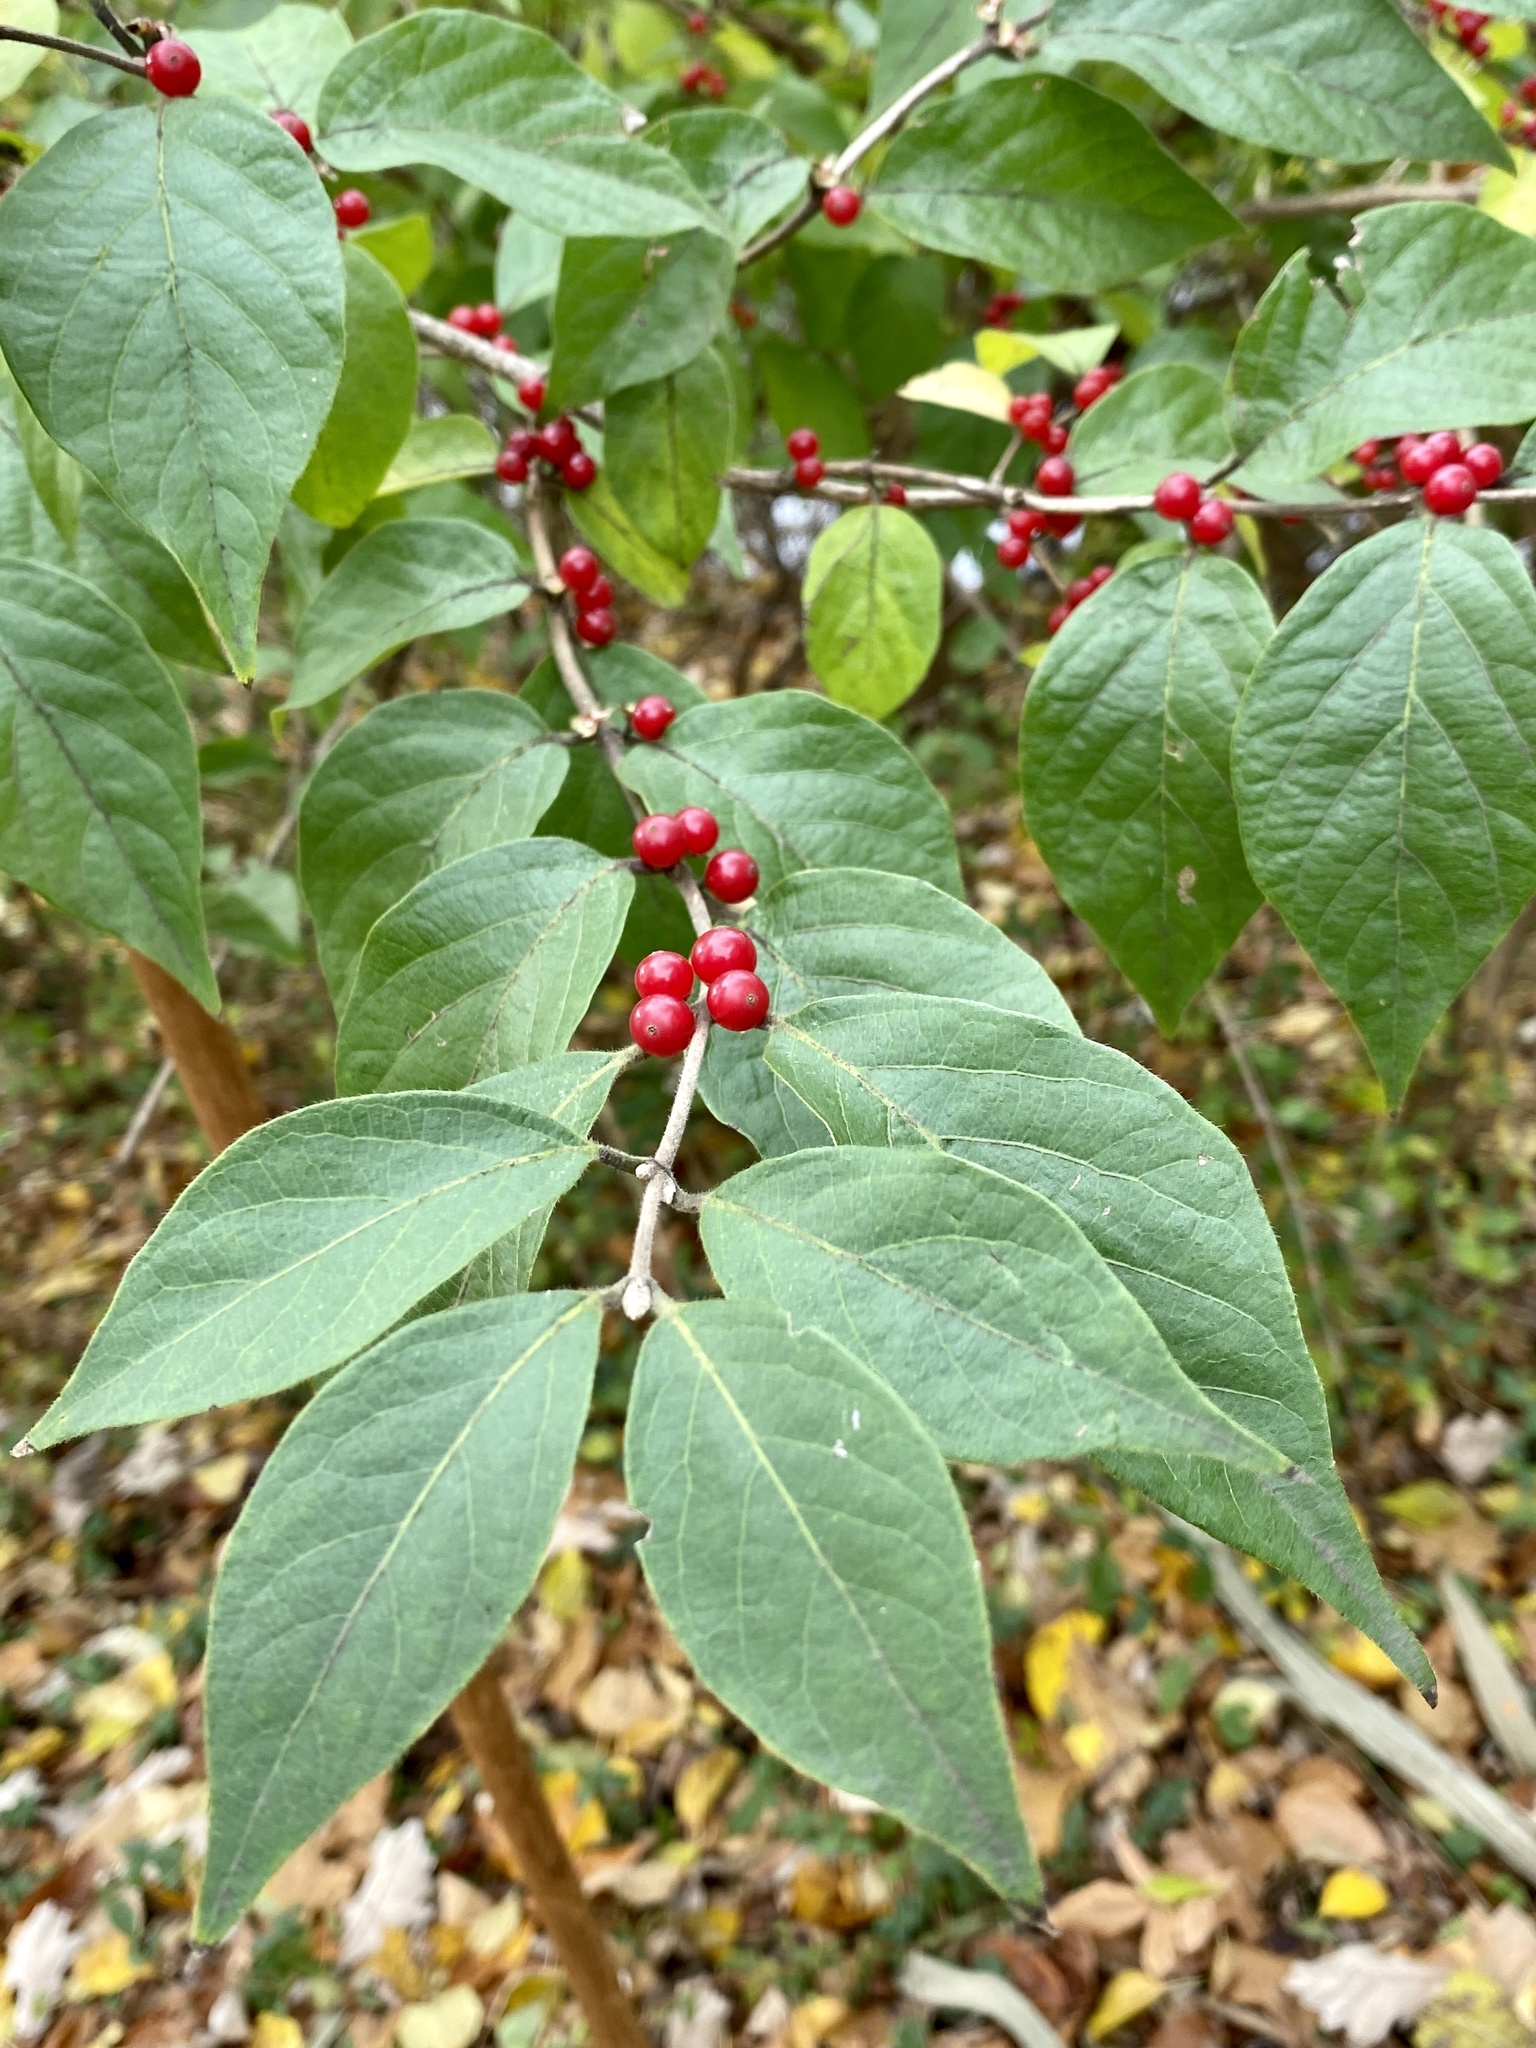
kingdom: Plantae
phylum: Tracheophyta
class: Magnoliopsida
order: Dipsacales
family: Caprifoliaceae
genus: Lonicera
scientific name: Lonicera maackii
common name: Amur honeysuckle
